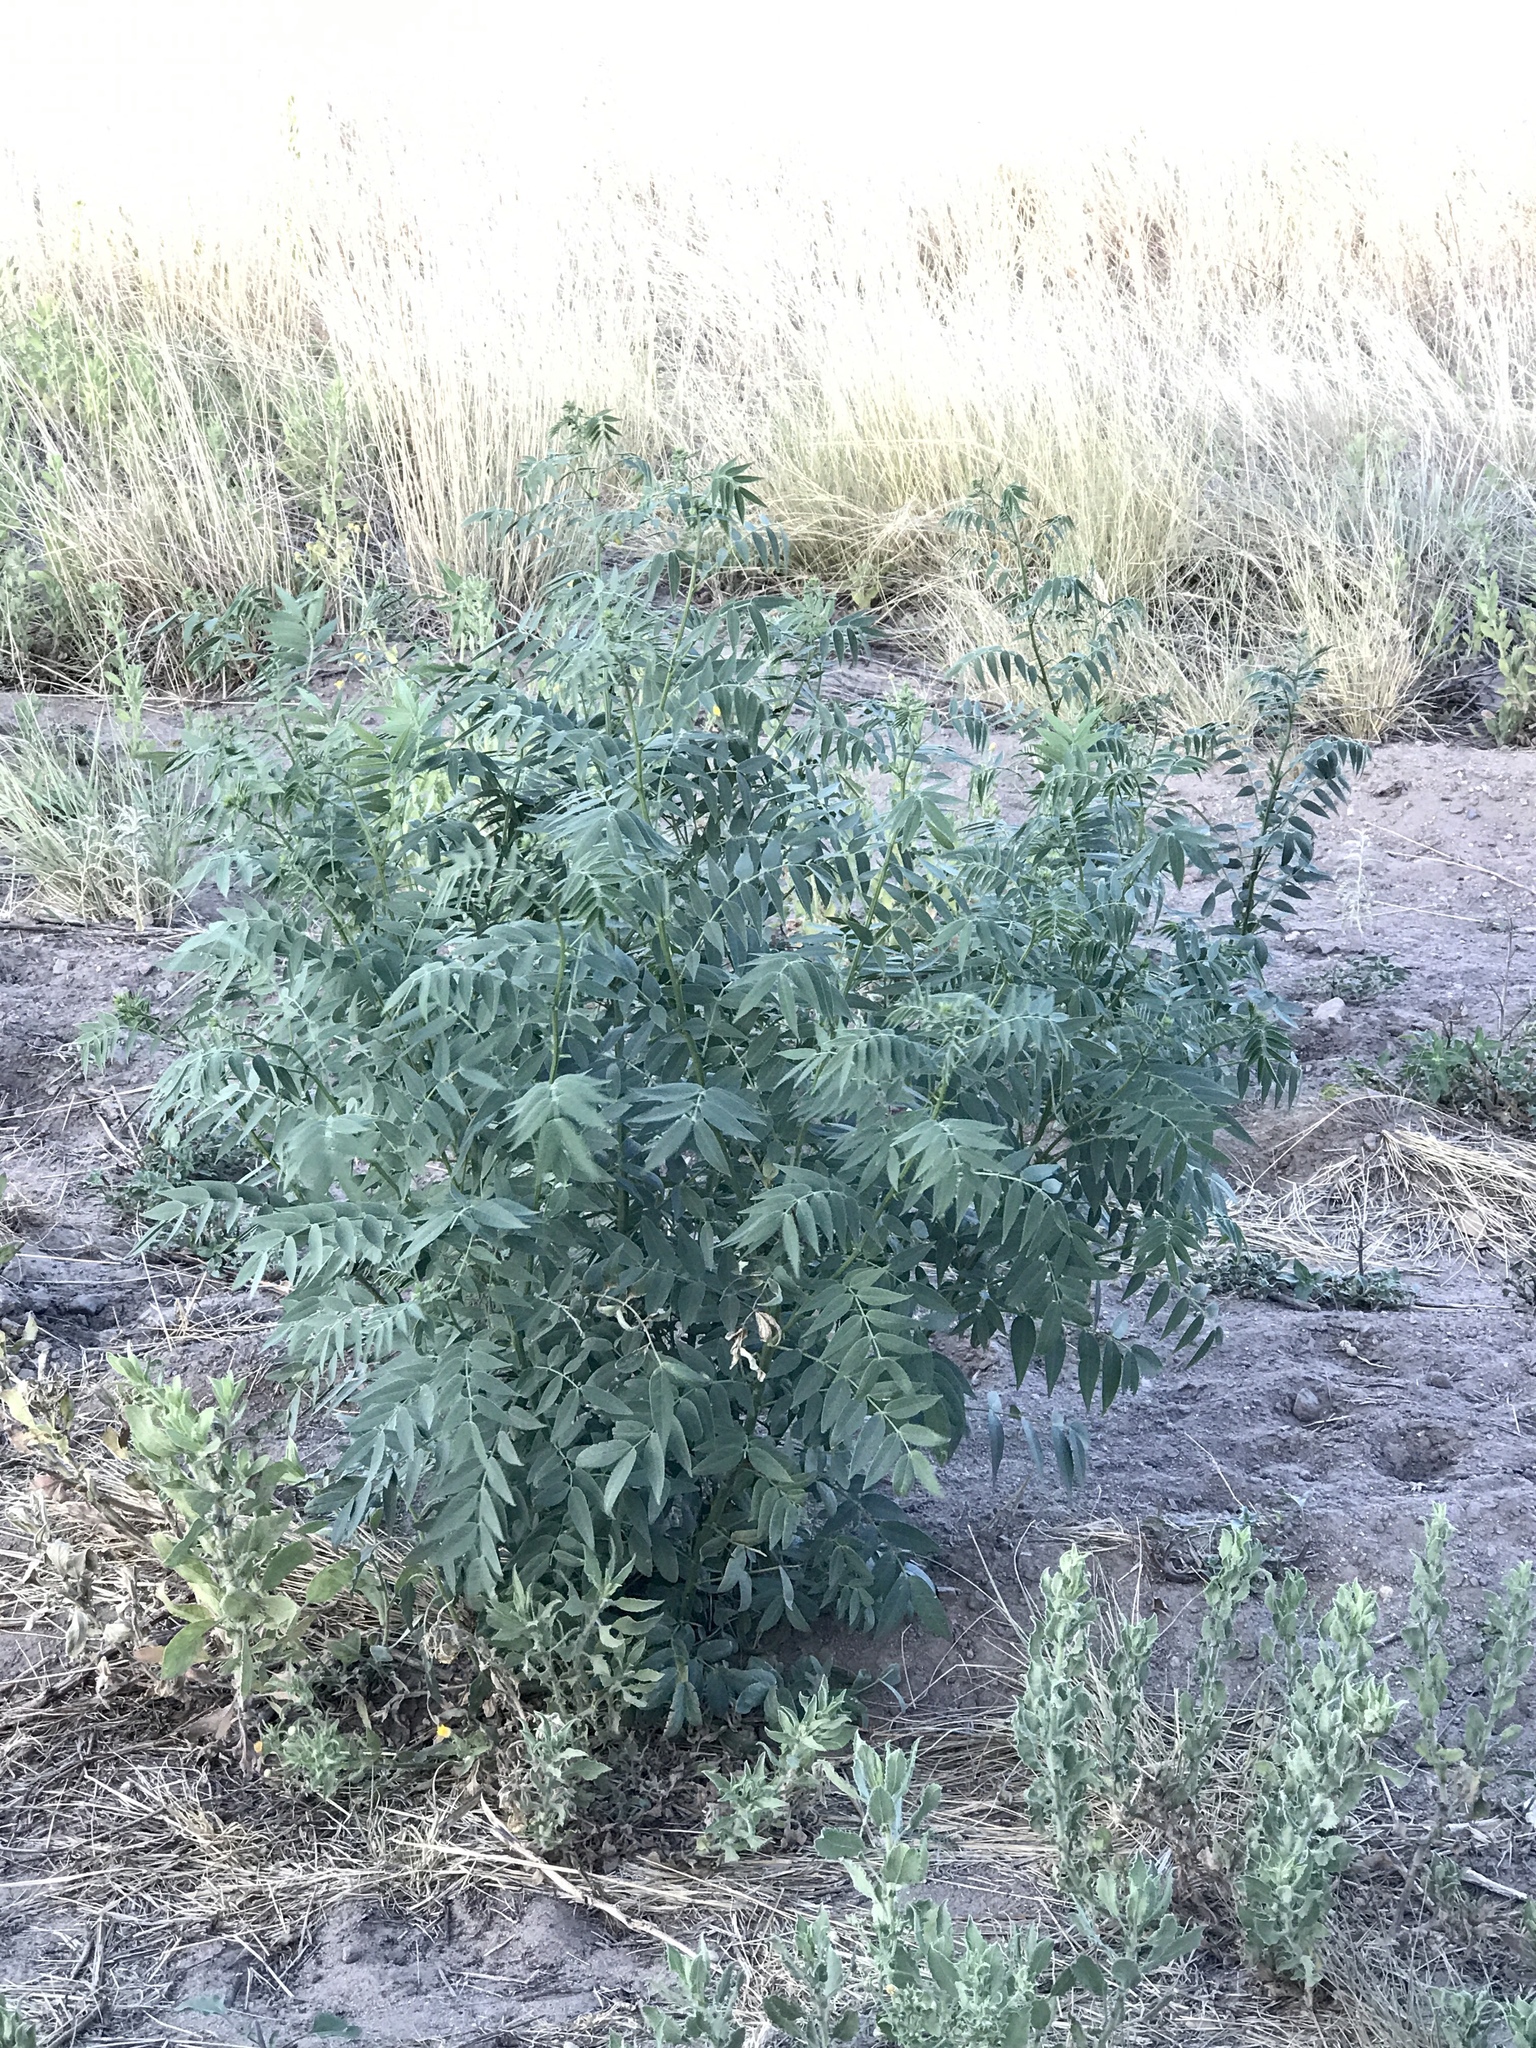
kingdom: Plantae
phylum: Tracheophyta
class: Magnoliopsida
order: Fabales
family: Fabaceae
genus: Senna
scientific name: Senna hirsuta
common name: Woolly senna
